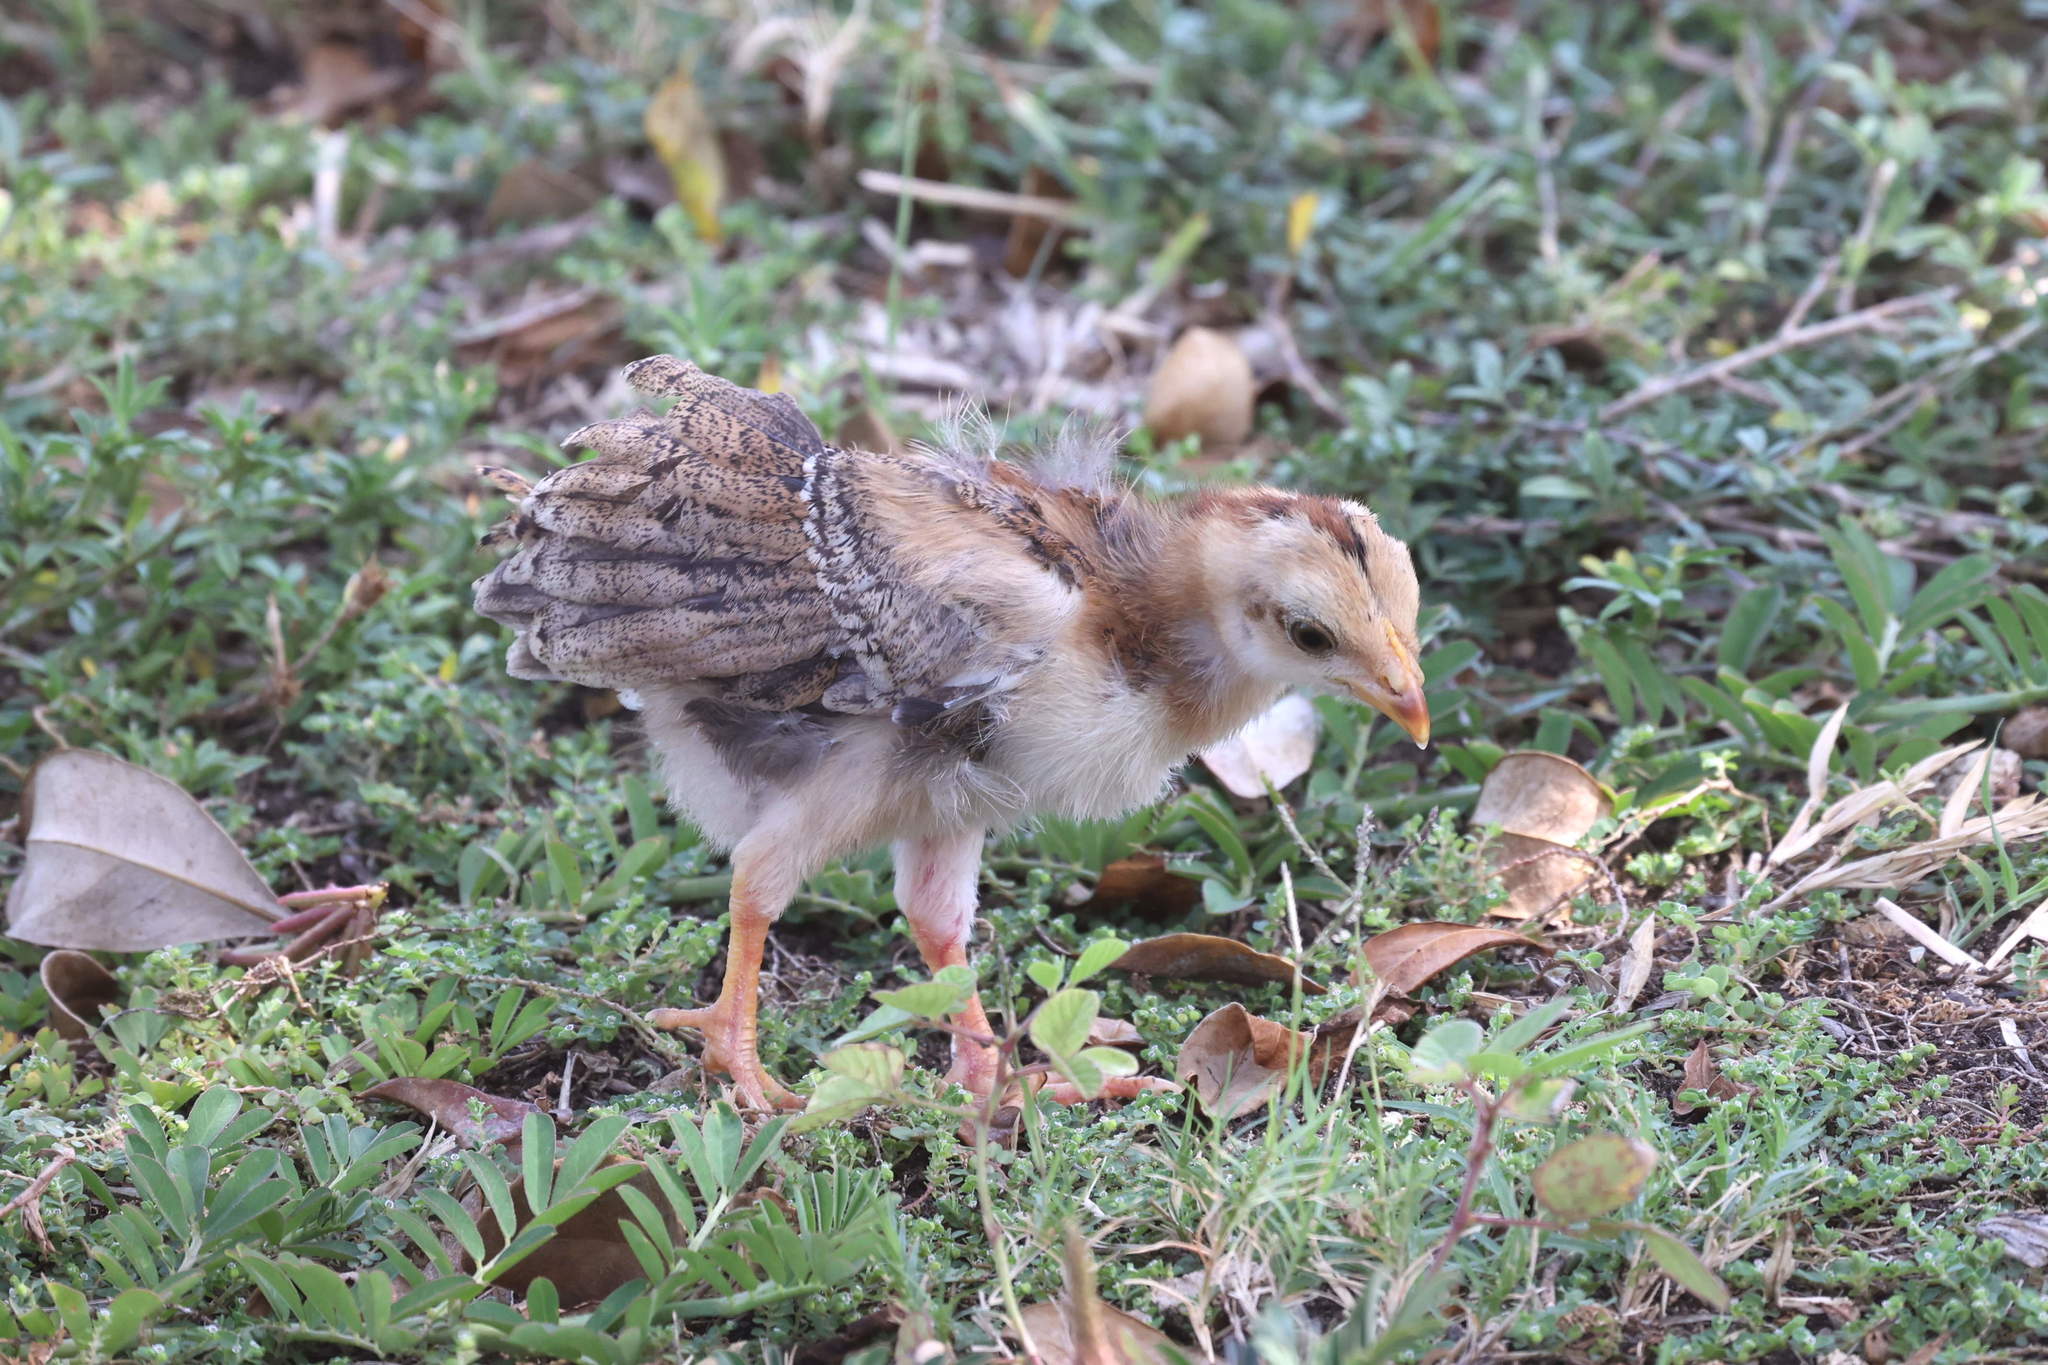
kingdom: Animalia
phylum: Chordata
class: Aves
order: Galliformes
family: Phasianidae
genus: Gallus
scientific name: Gallus gallus
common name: Red junglefowl
